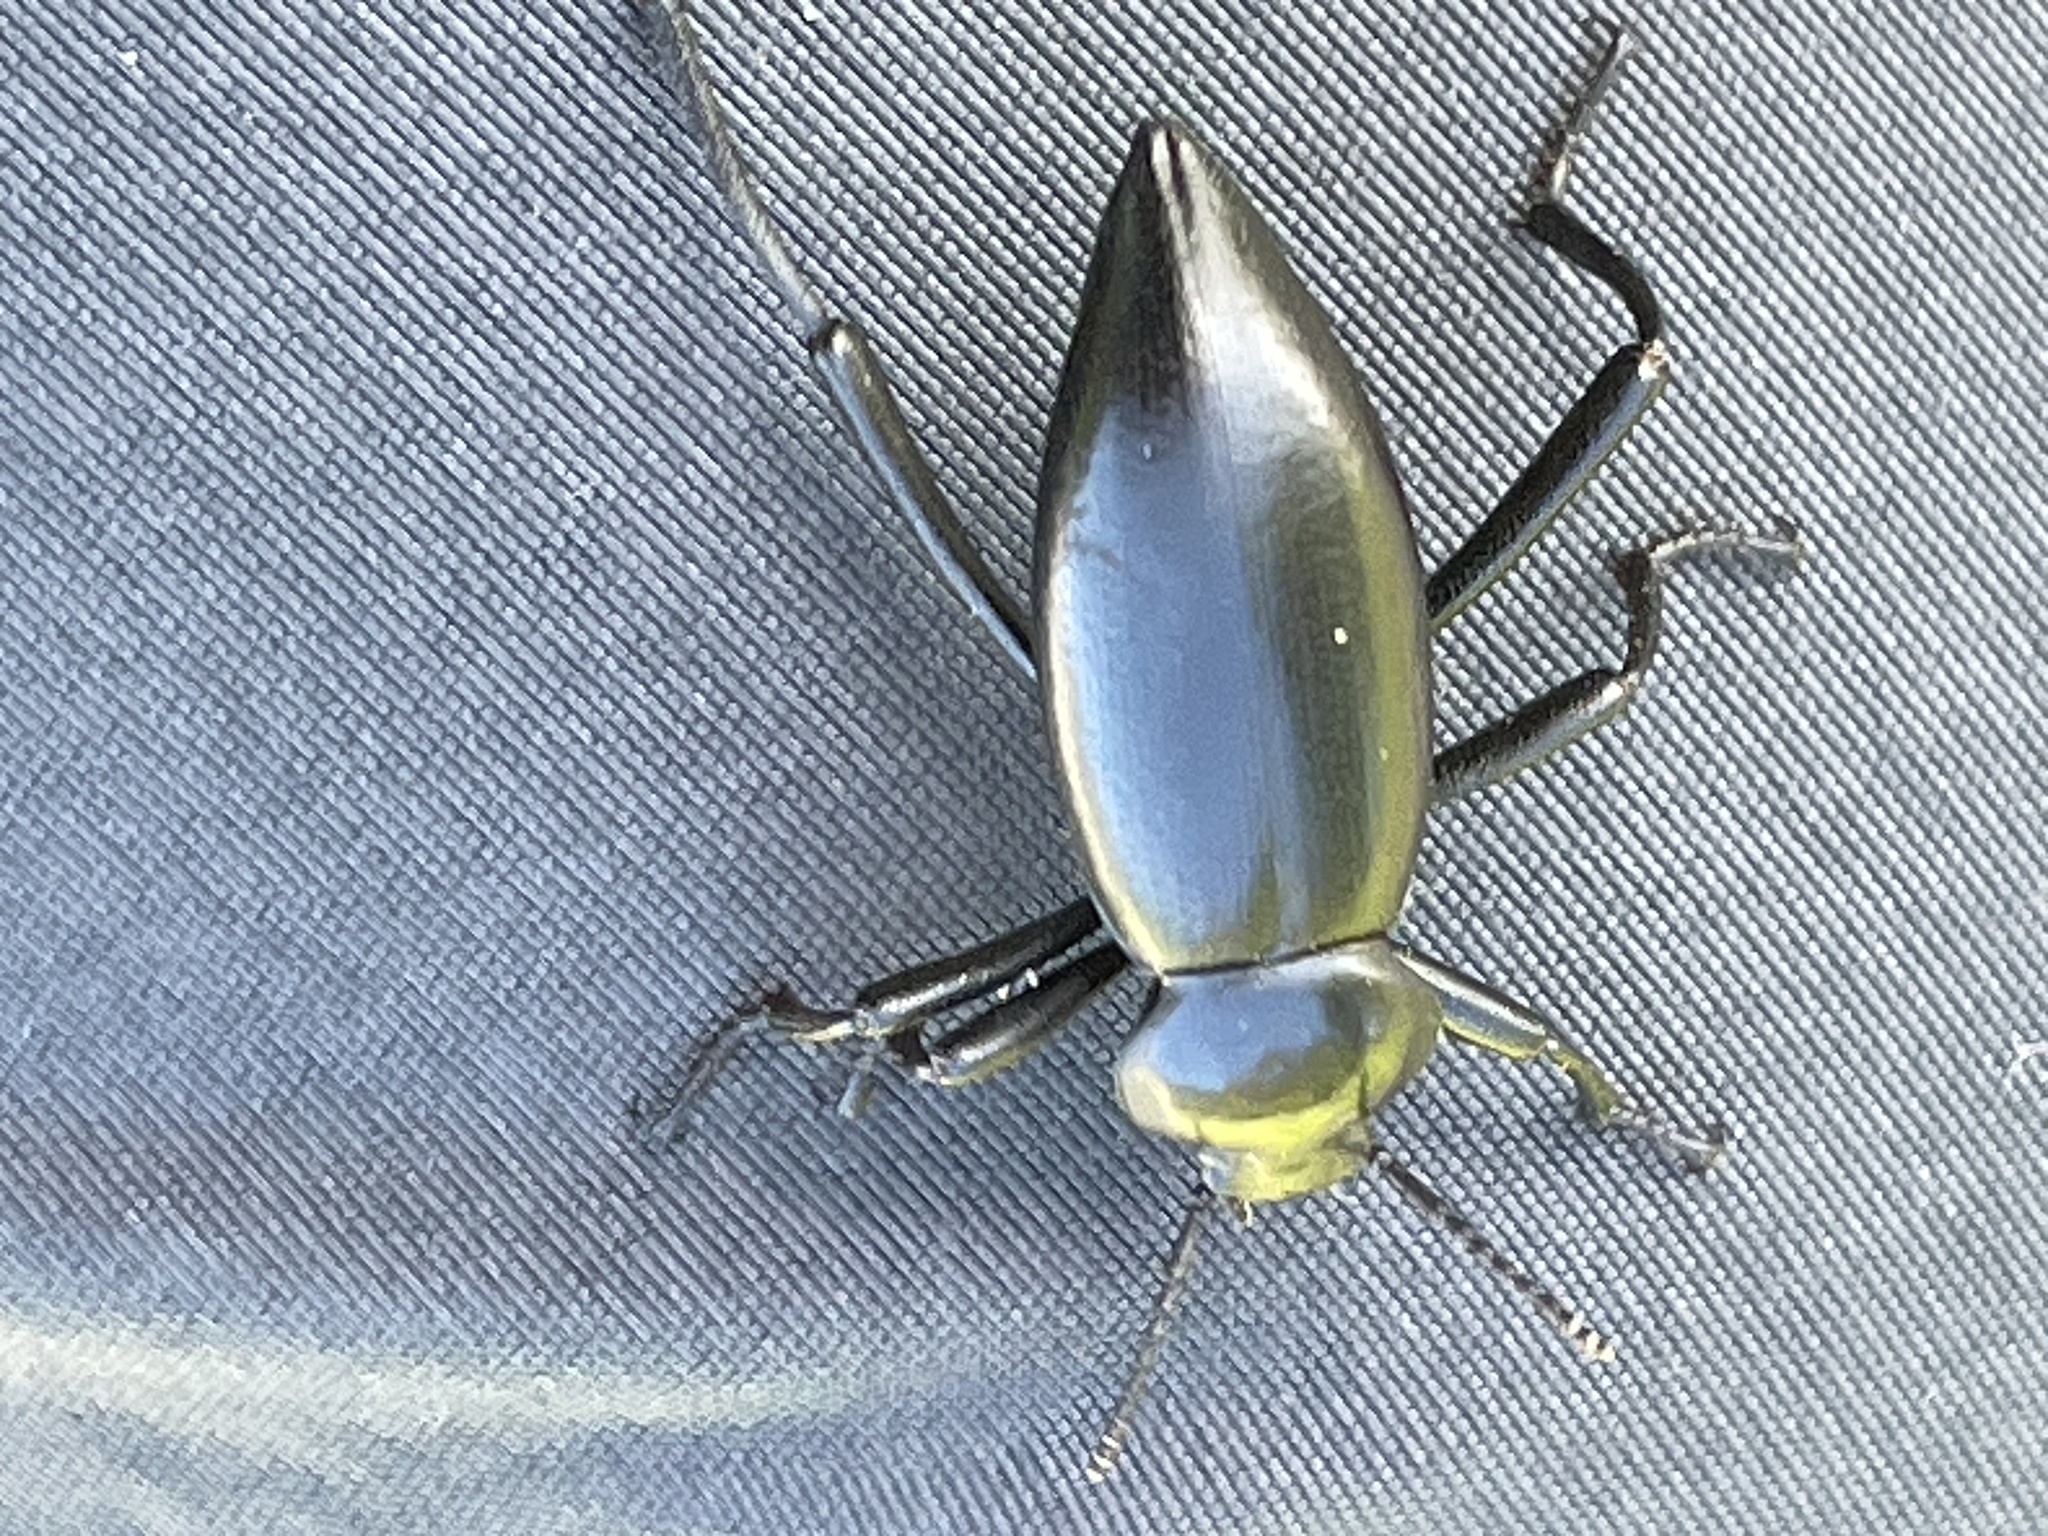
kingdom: Animalia
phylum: Arthropoda
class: Insecta
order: Coleoptera
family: Tenebrionidae
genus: Eleodes
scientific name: Eleodes acuticauda
